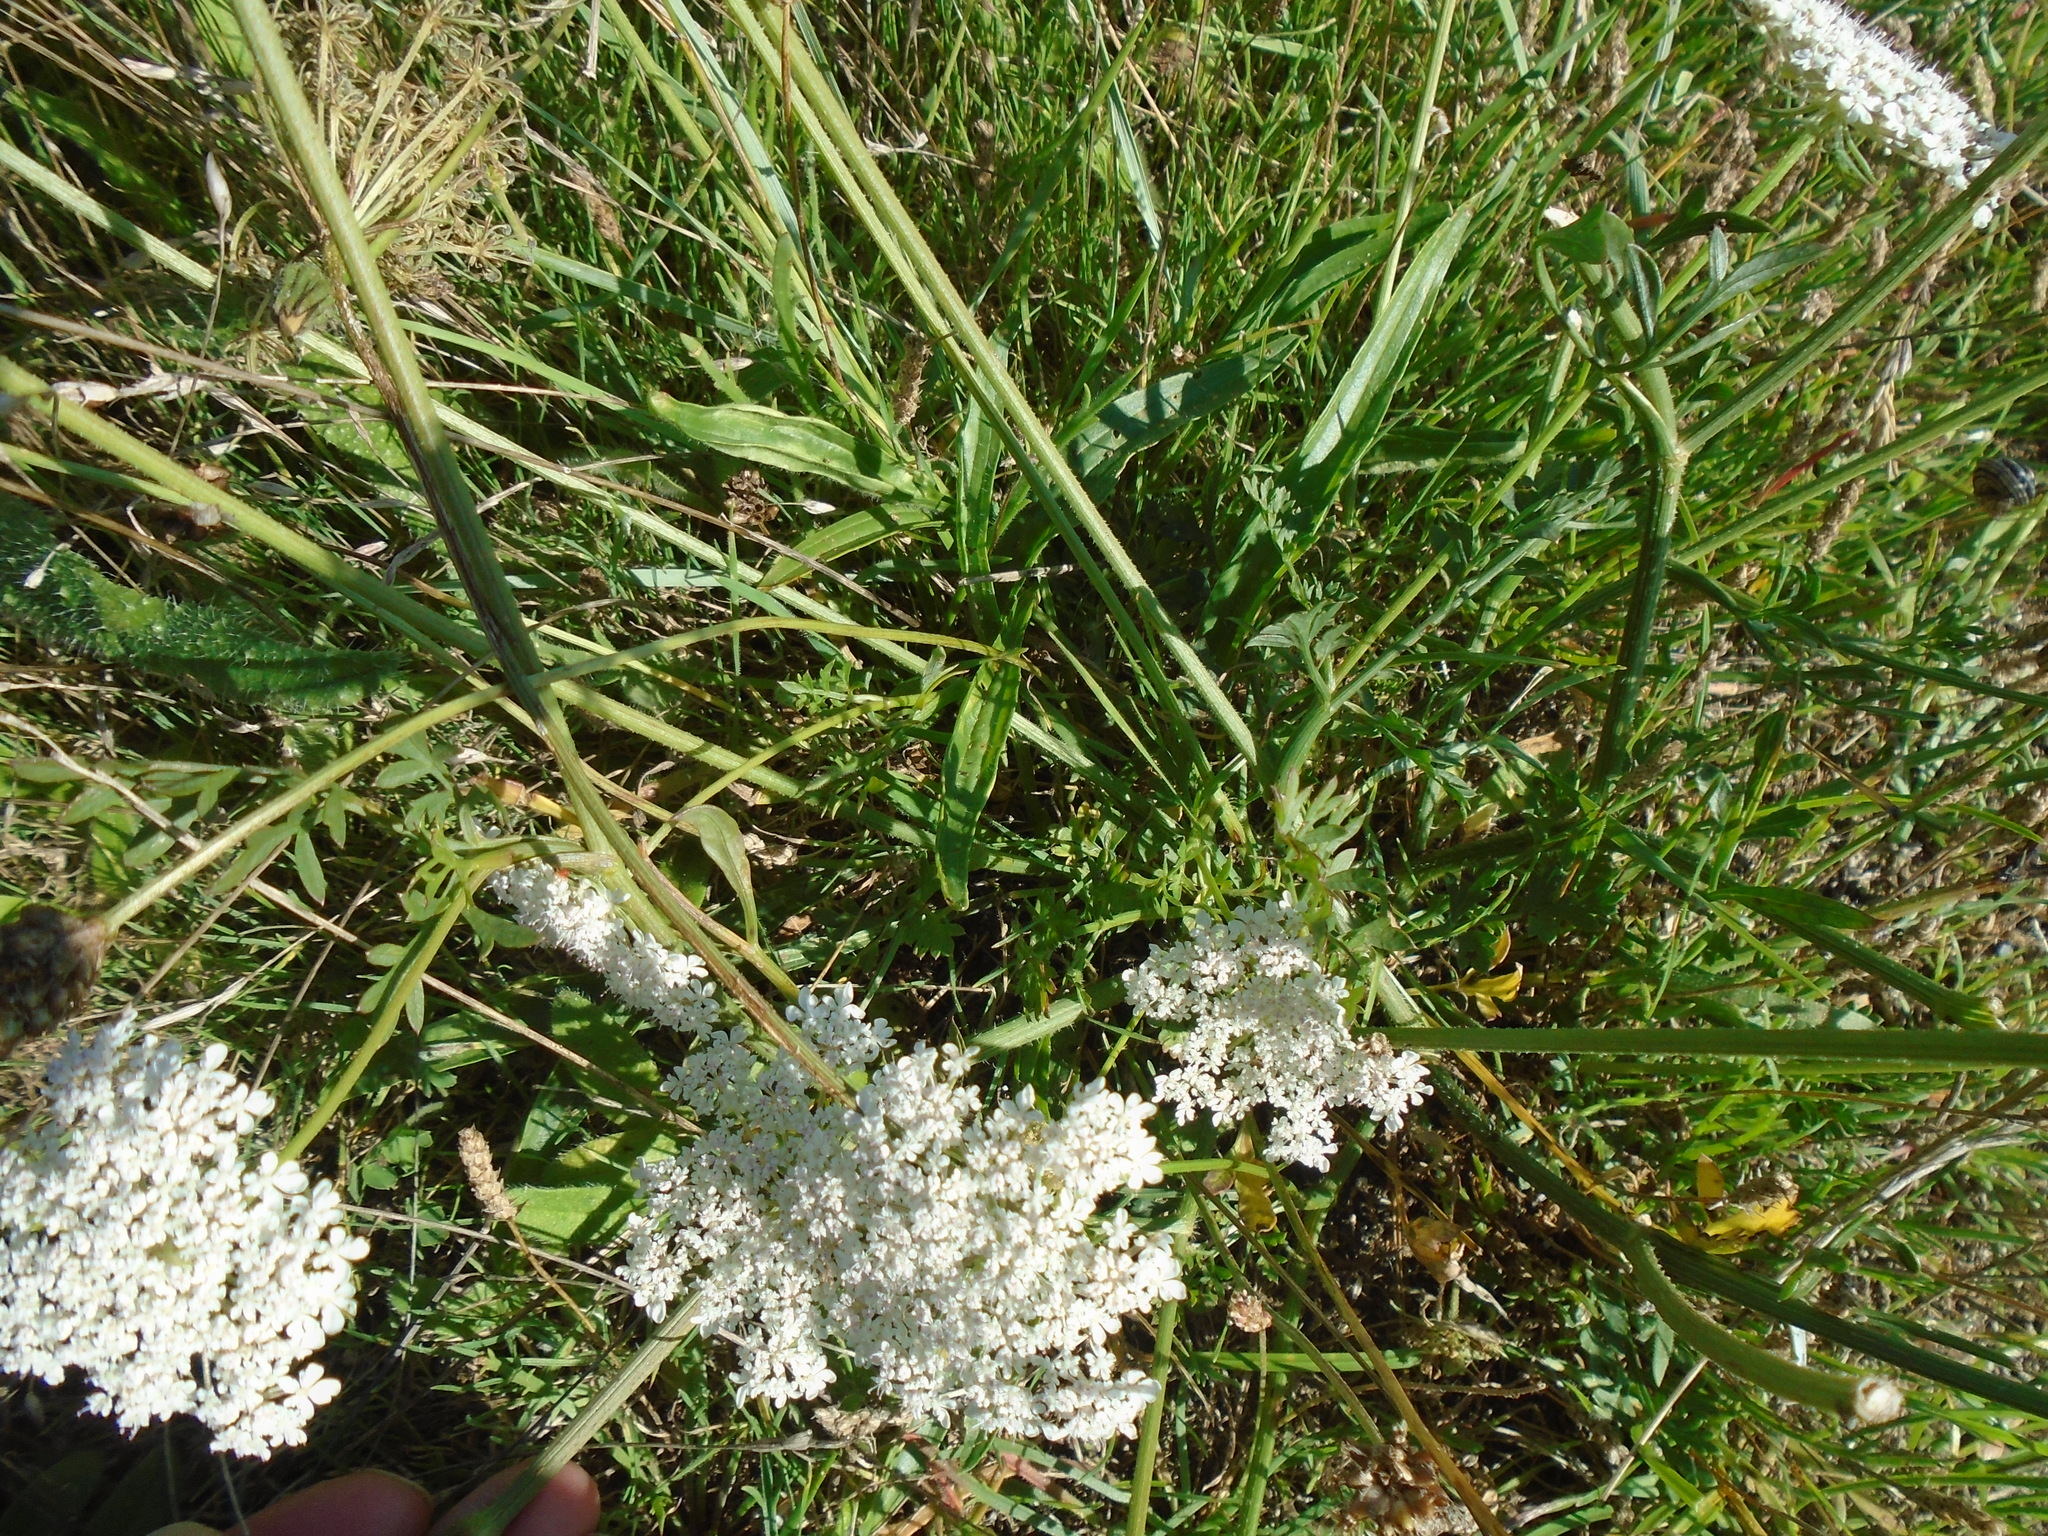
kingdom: Plantae
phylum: Tracheophyta
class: Magnoliopsida
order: Apiales
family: Apiaceae
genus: Daucus
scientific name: Daucus carota
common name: Wild carrot
